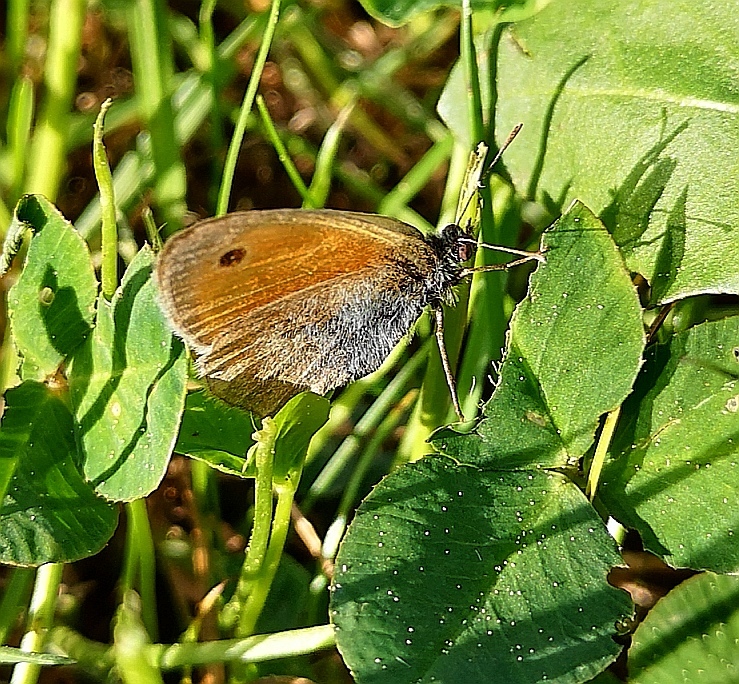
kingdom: Animalia
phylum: Arthropoda
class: Insecta
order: Lepidoptera
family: Nymphalidae
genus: Coenonympha
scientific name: Coenonympha pamphilus
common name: Small heath
